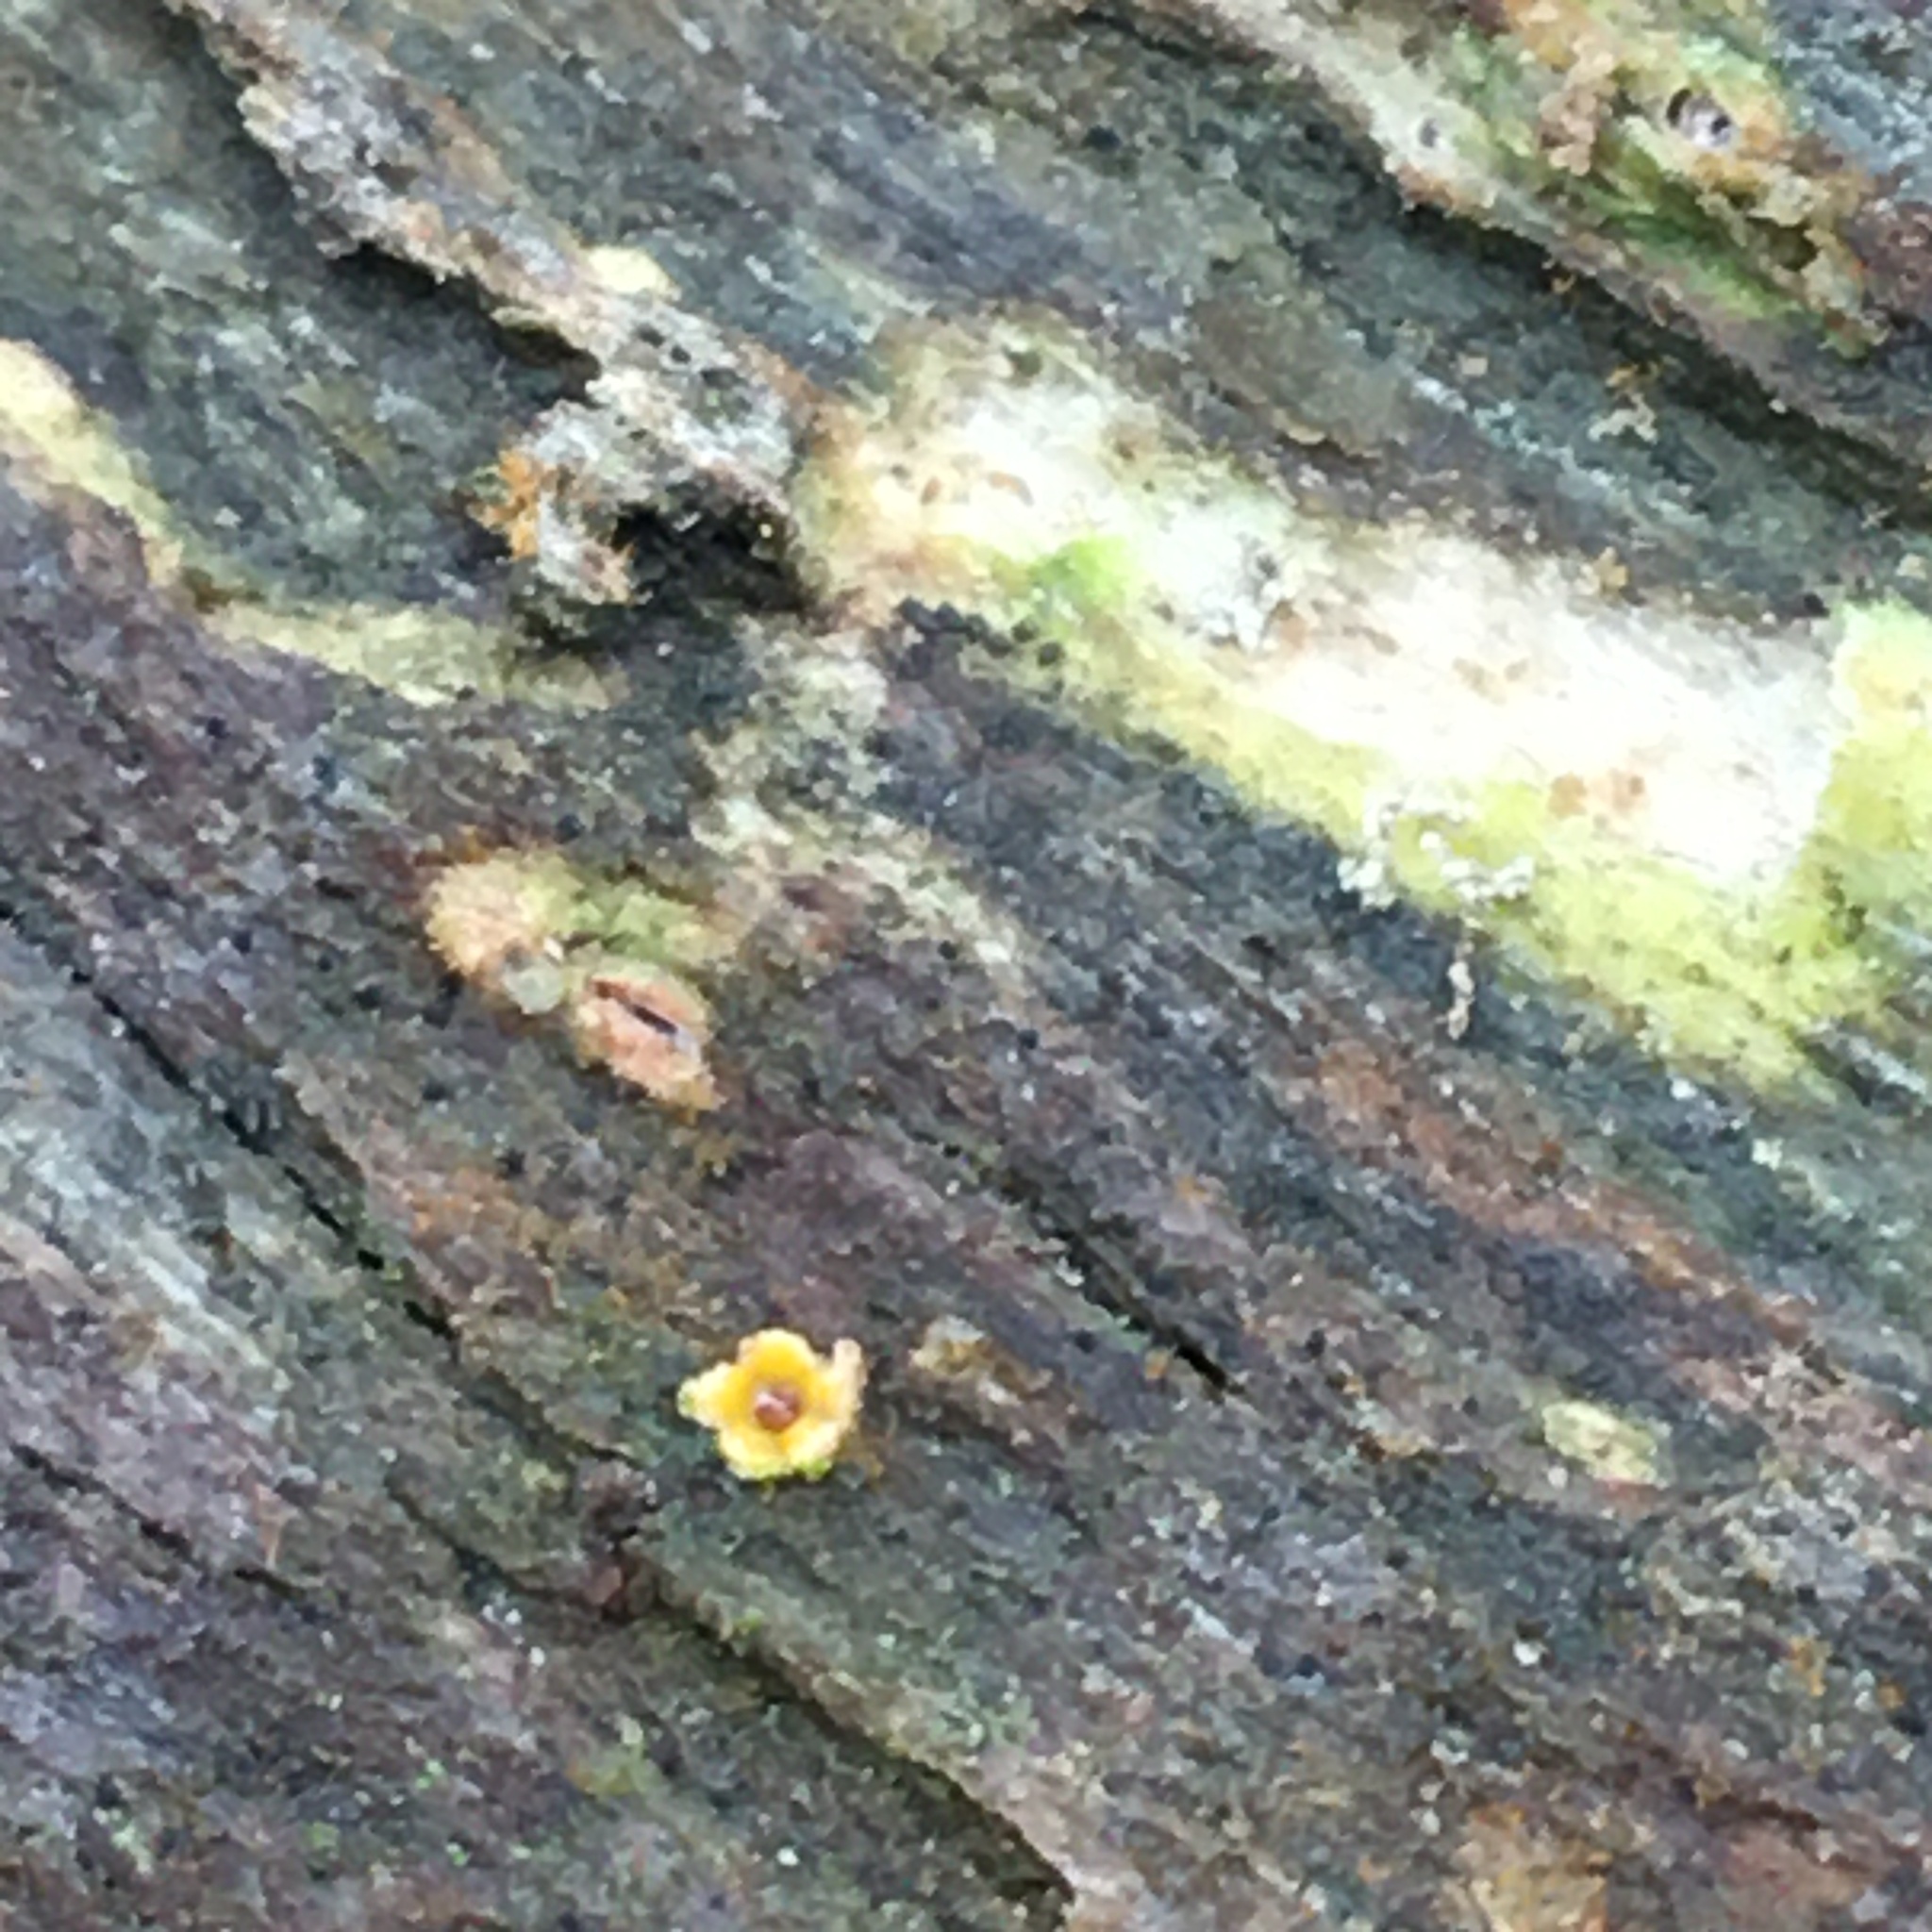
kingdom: Fungi
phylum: Basidiomycota
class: Agaricomycetes
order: Geastrales
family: Geastraceae
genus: Sphaerobolus
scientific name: Sphaerobolus stellatus
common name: Cannon fungus
